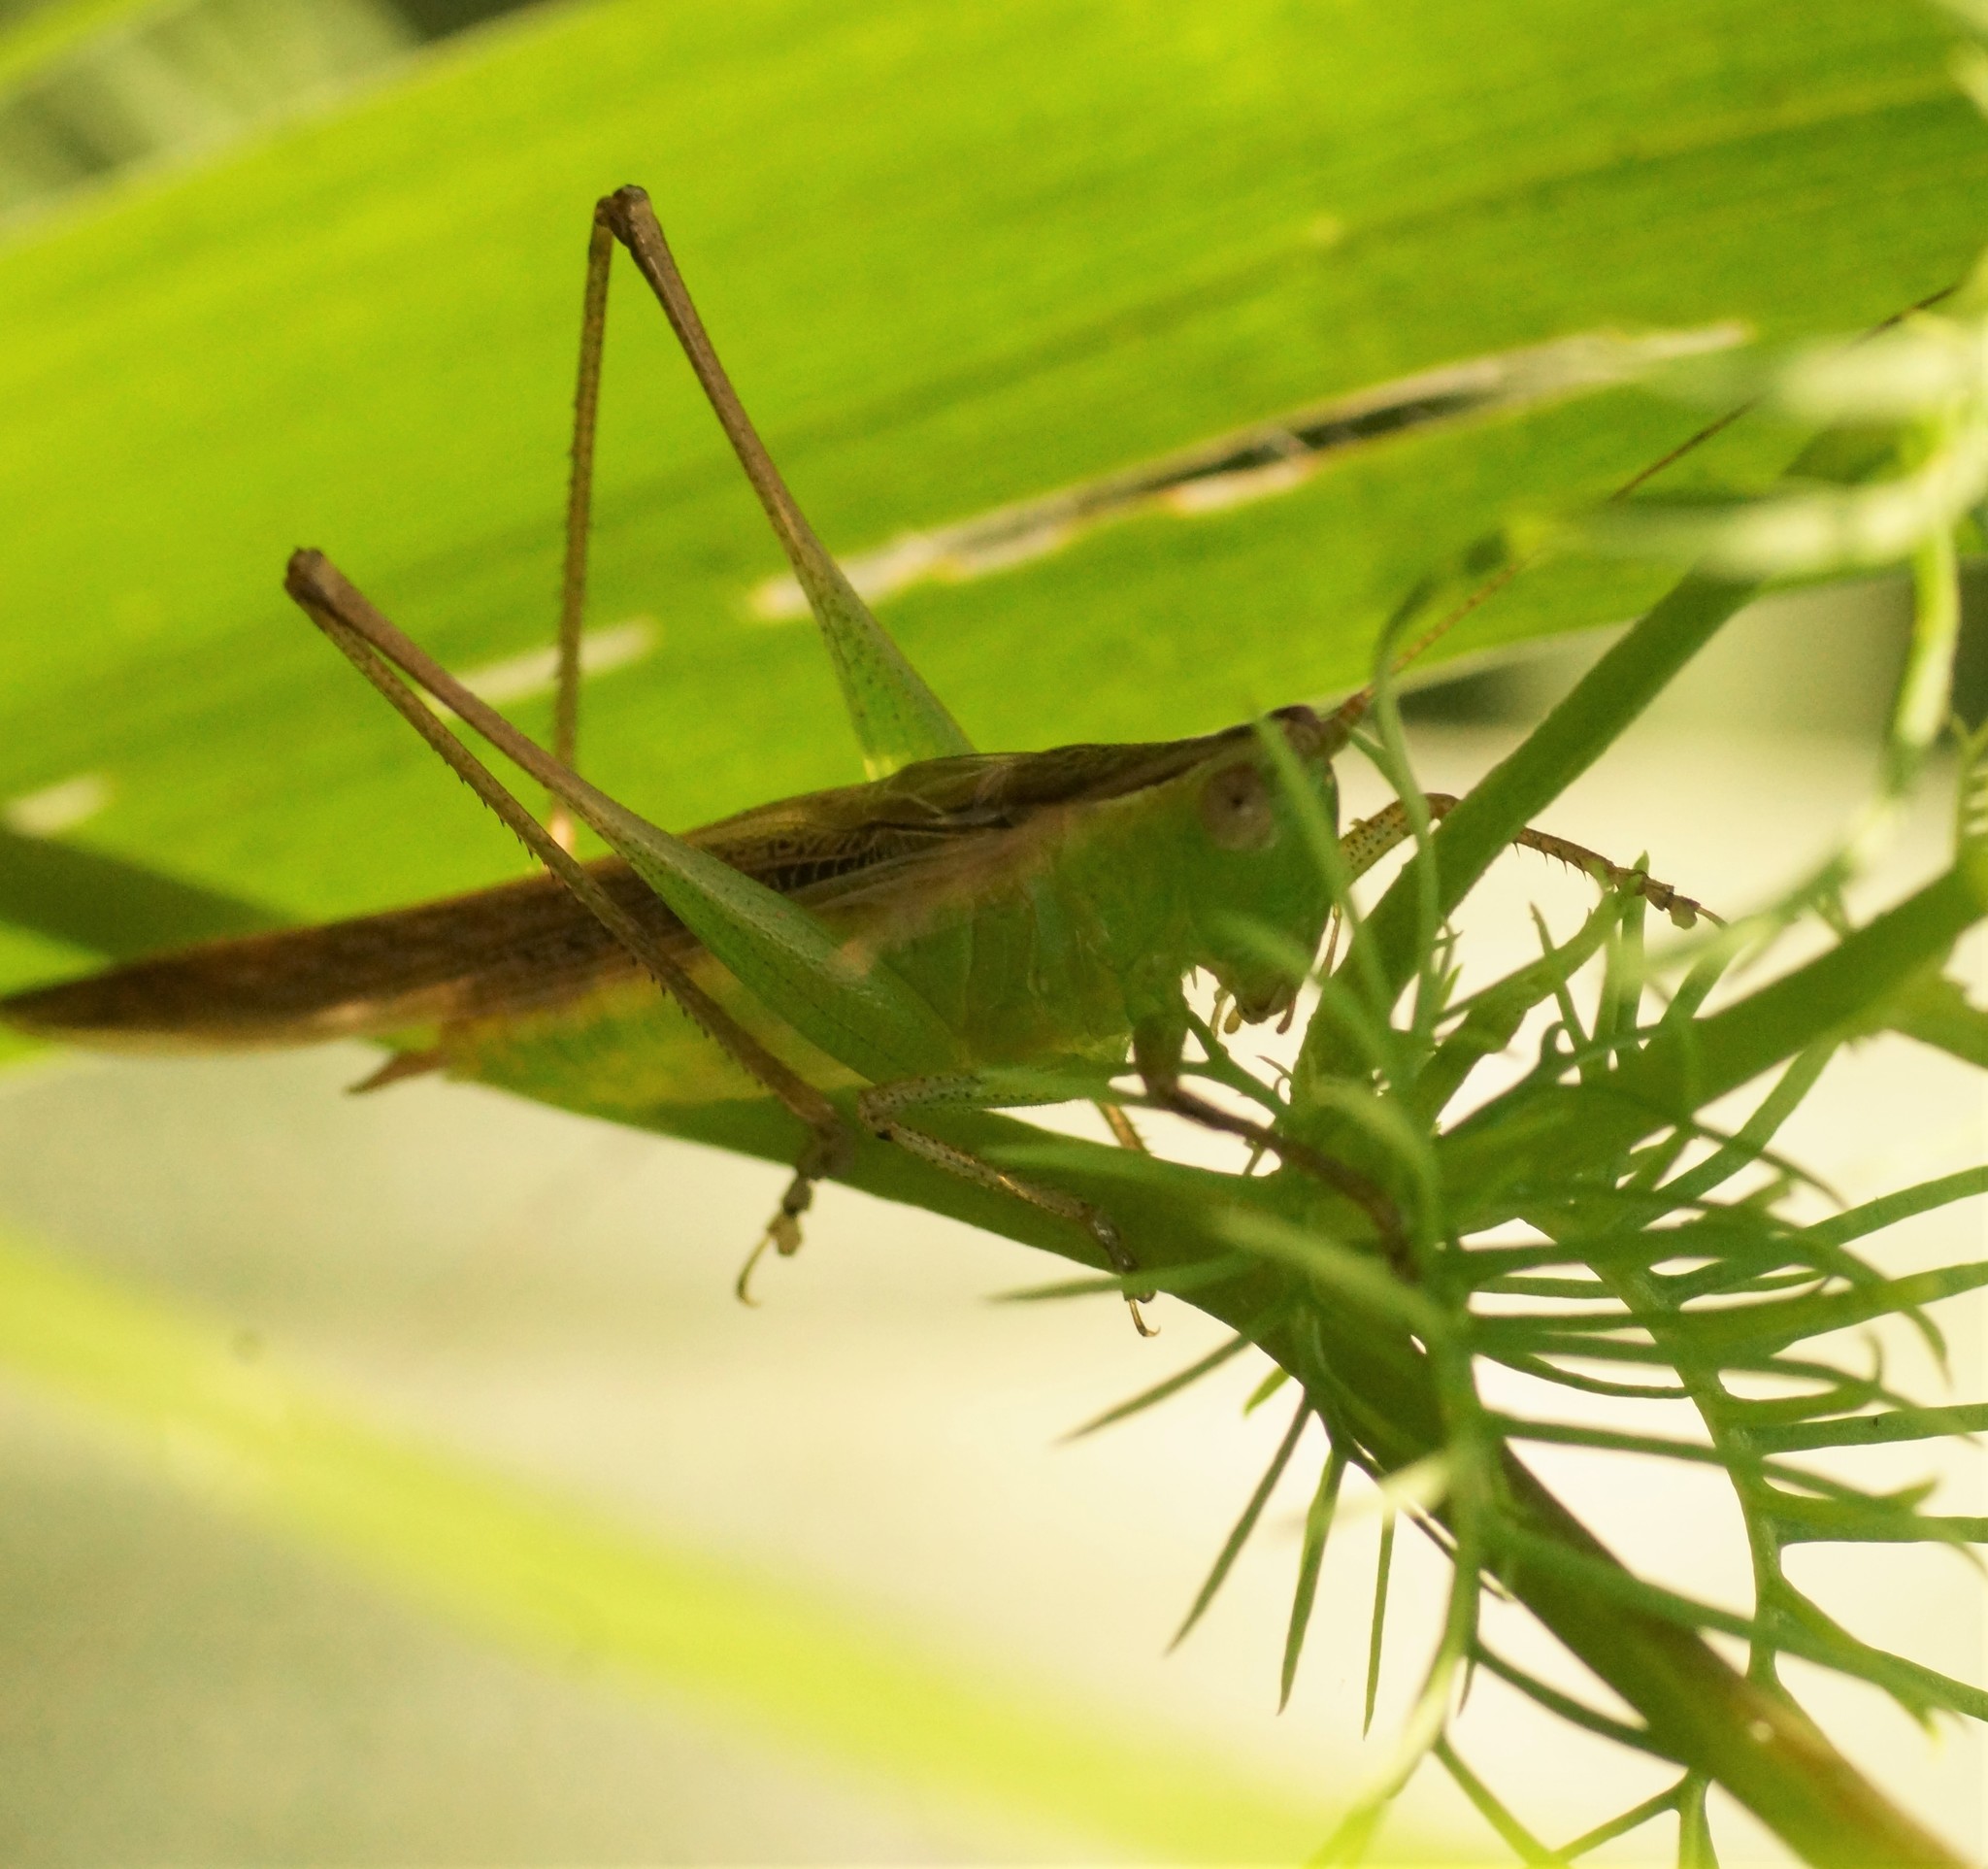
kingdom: Animalia
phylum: Arthropoda
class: Insecta
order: Orthoptera
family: Tettigoniidae
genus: Conocephalus
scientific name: Conocephalus willemsei
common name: Willemse's meadow katydid
